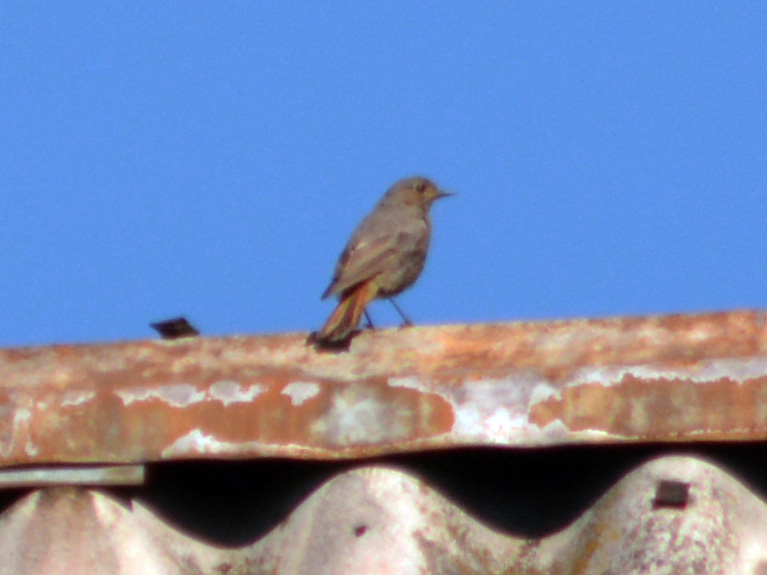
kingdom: Animalia
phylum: Chordata
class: Aves
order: Passeriformes
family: Muscicapidae
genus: Phoenicurus
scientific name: Phoenicurus ochruros
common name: Black redstart
